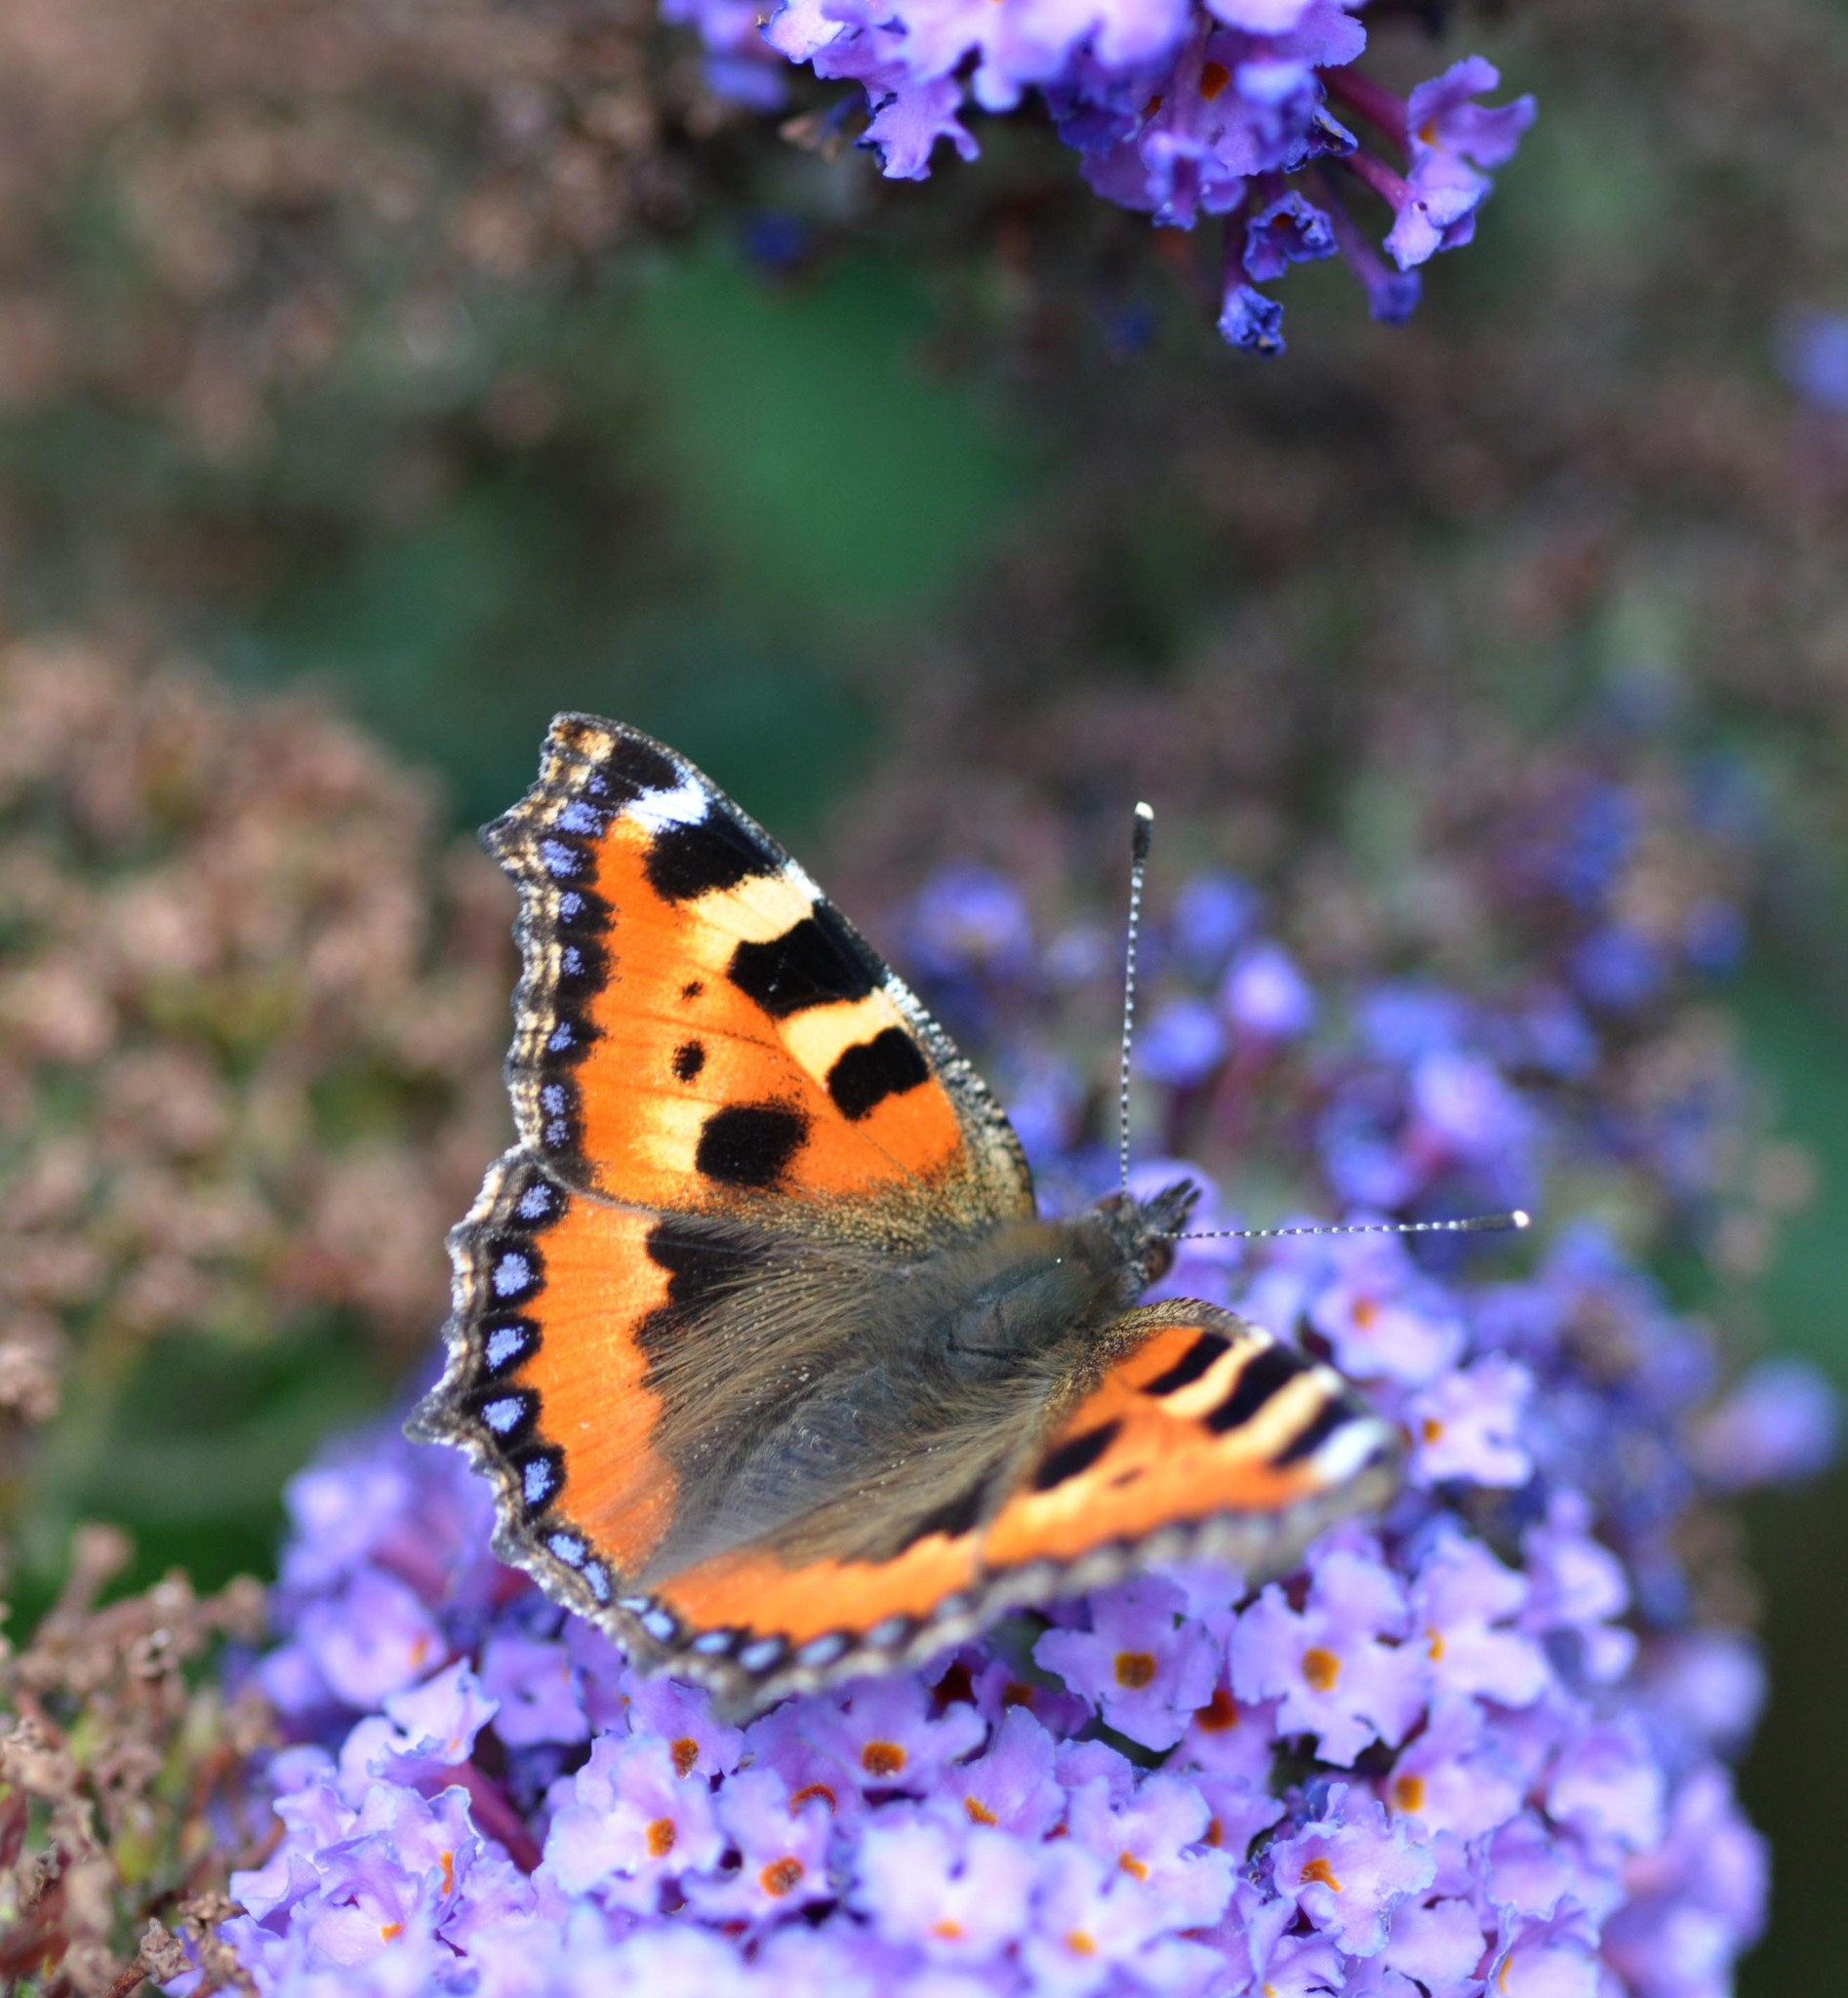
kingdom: Animalia
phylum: Arthropoda
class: Insecta
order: Lepidoptera
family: Nymphalidae
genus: Aglais
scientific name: Aglais urticae
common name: Small tortoiseshell
